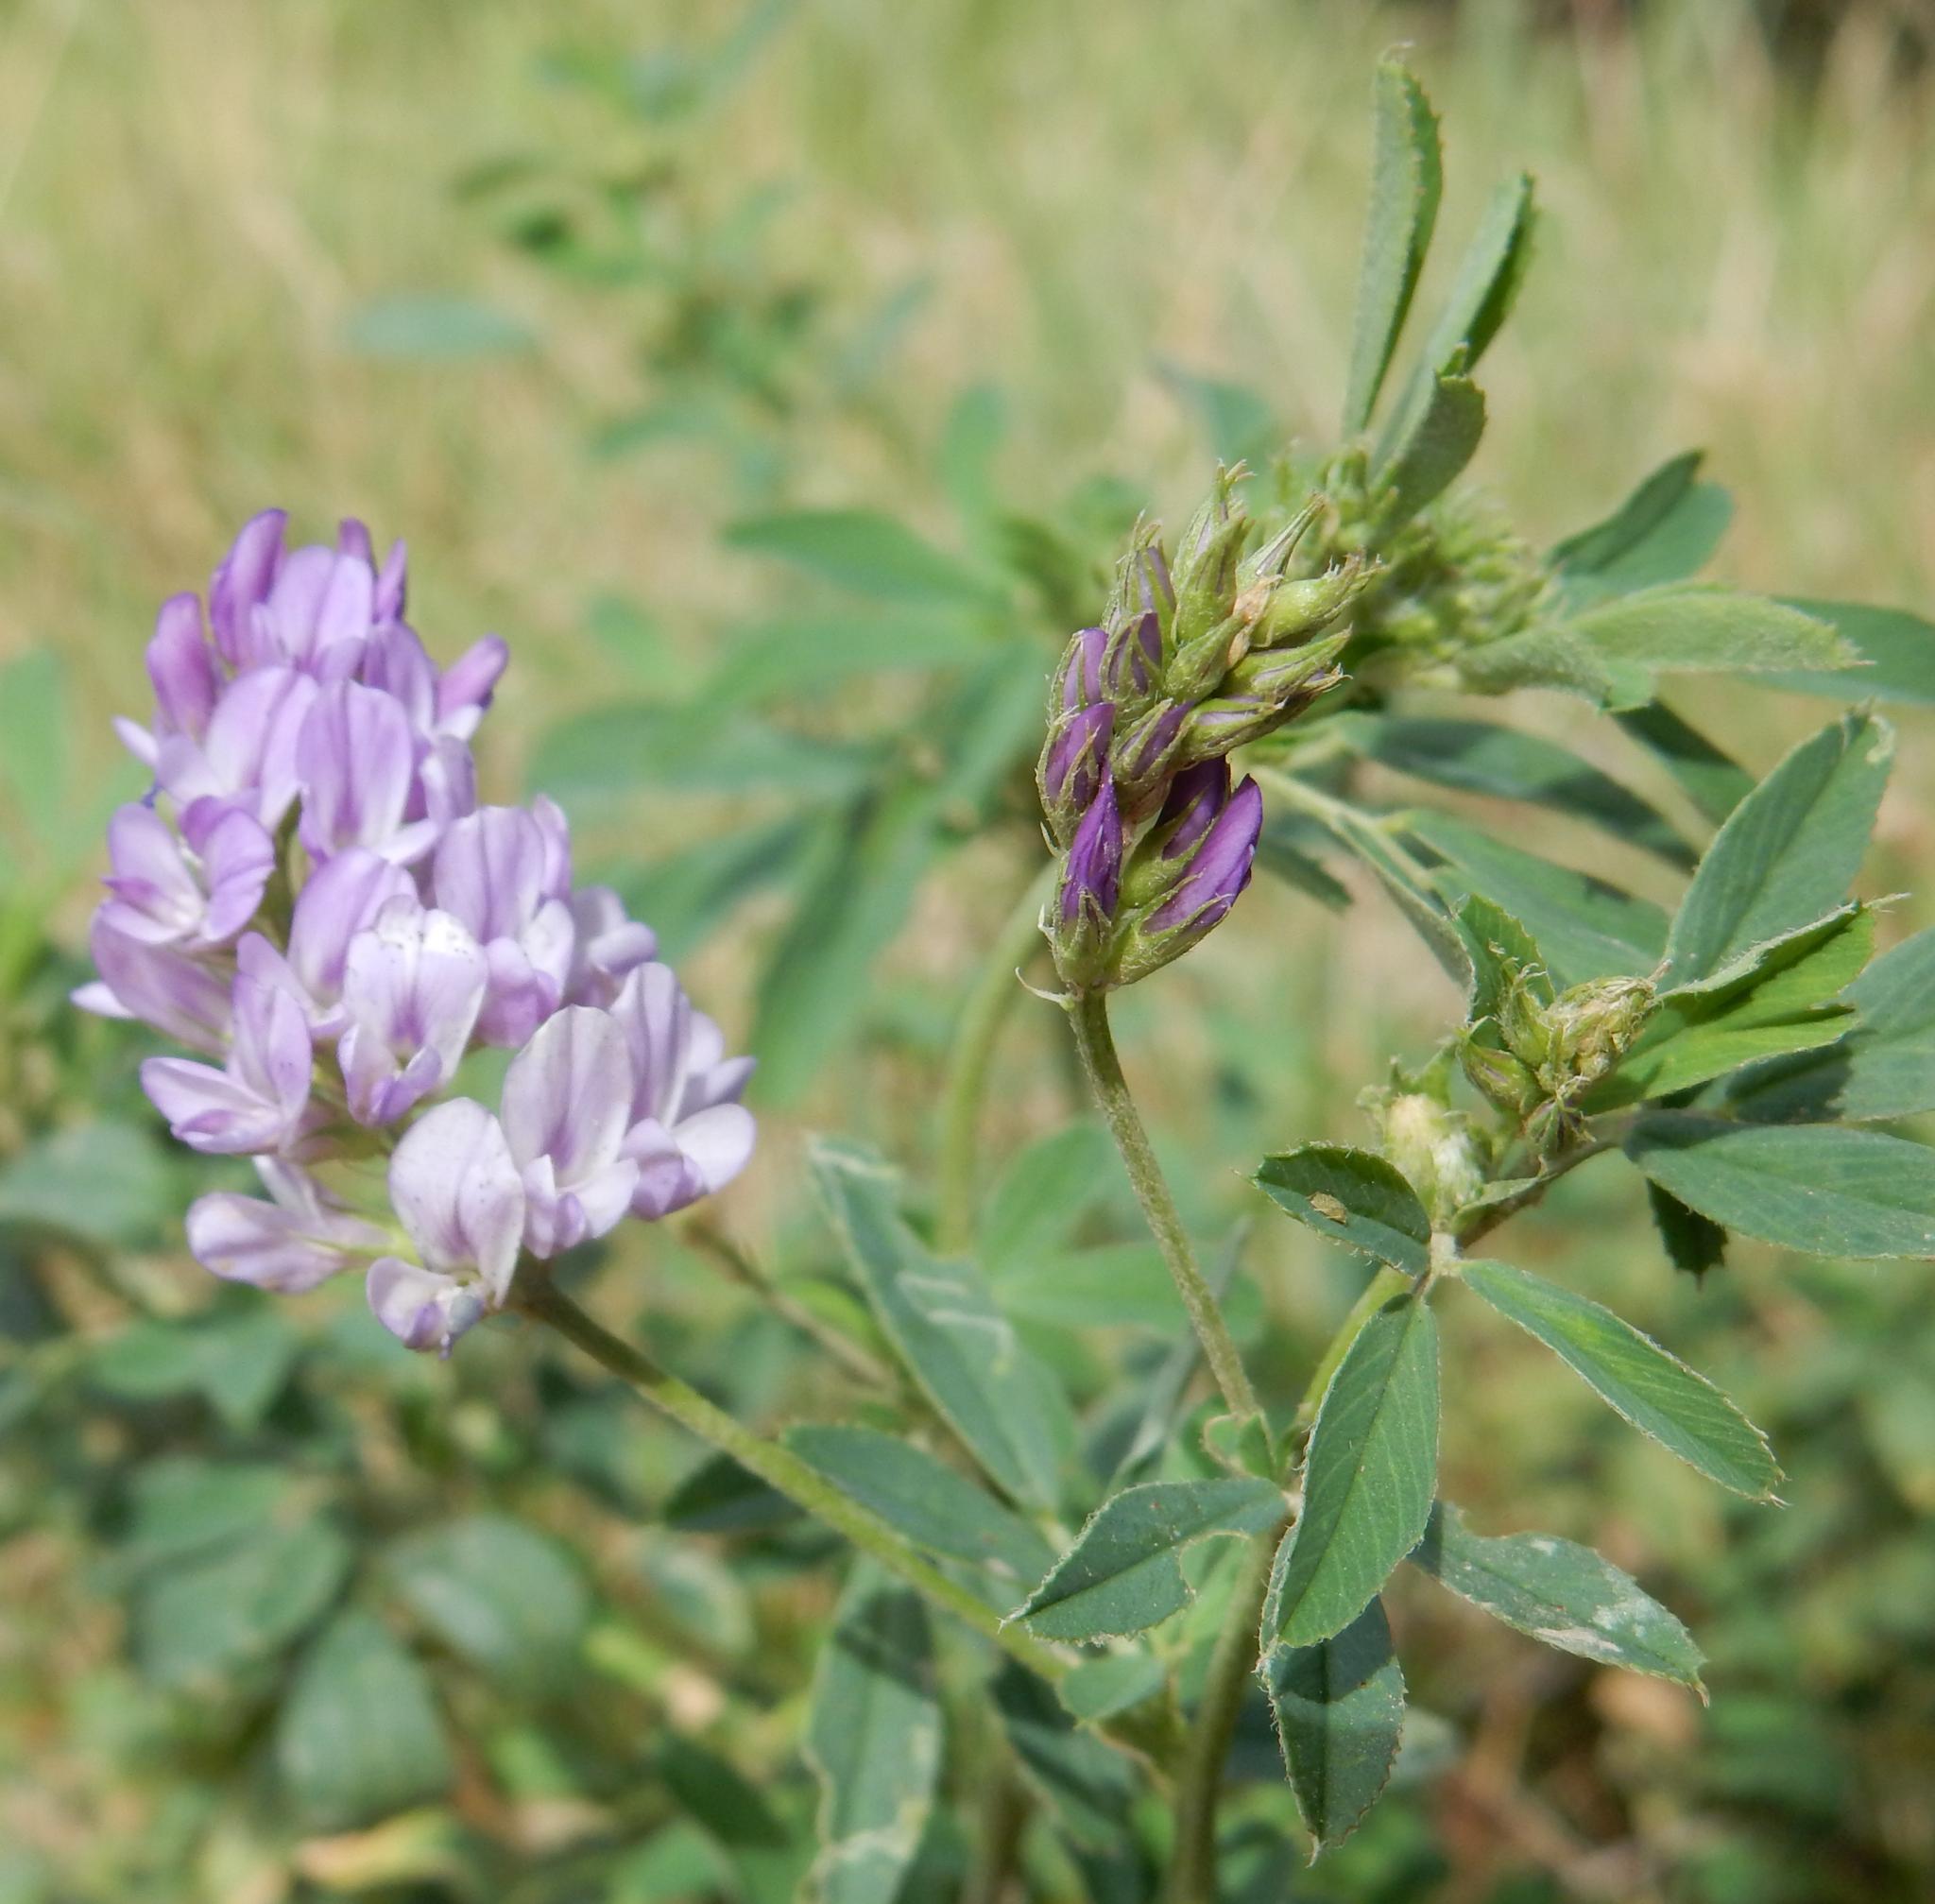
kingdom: Plantae
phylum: Tracheophyta
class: Magnoliopsida
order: Fabales
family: Fabaceae
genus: Medicago
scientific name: Medicago sativa
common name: Alfalfa
